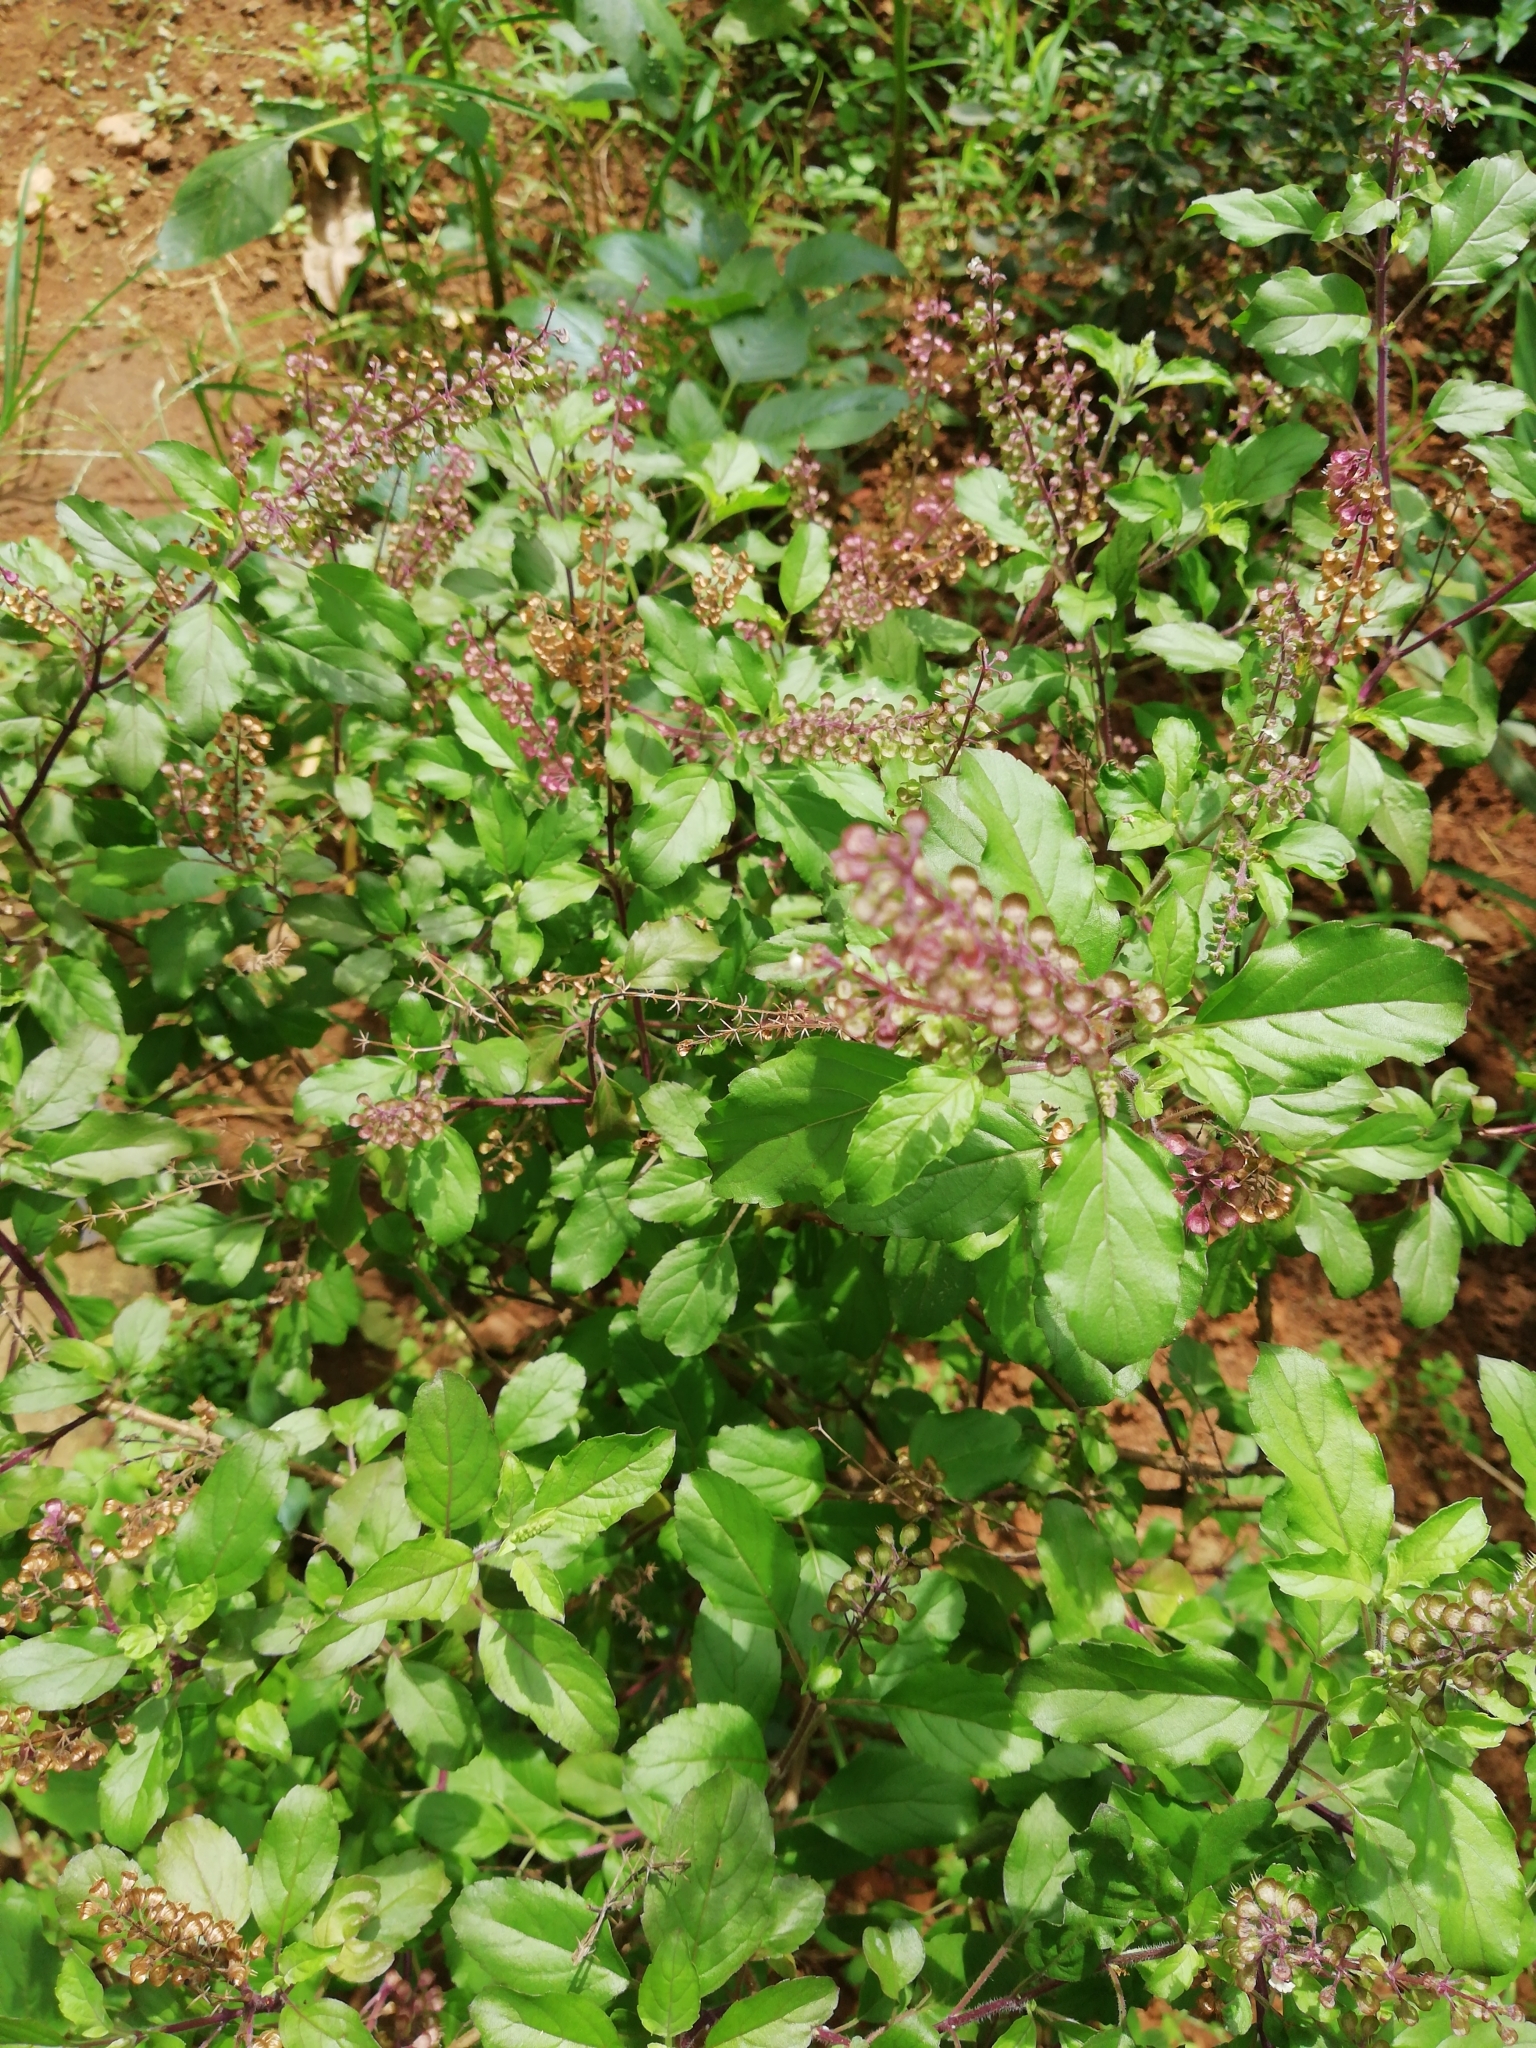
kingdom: Plantae
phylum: Tracheophyta
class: Magnoliopsida
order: Lamiales
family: Lamiaceae
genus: Ocimum
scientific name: Ocimum tenuiflorum
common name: Sacred basil
